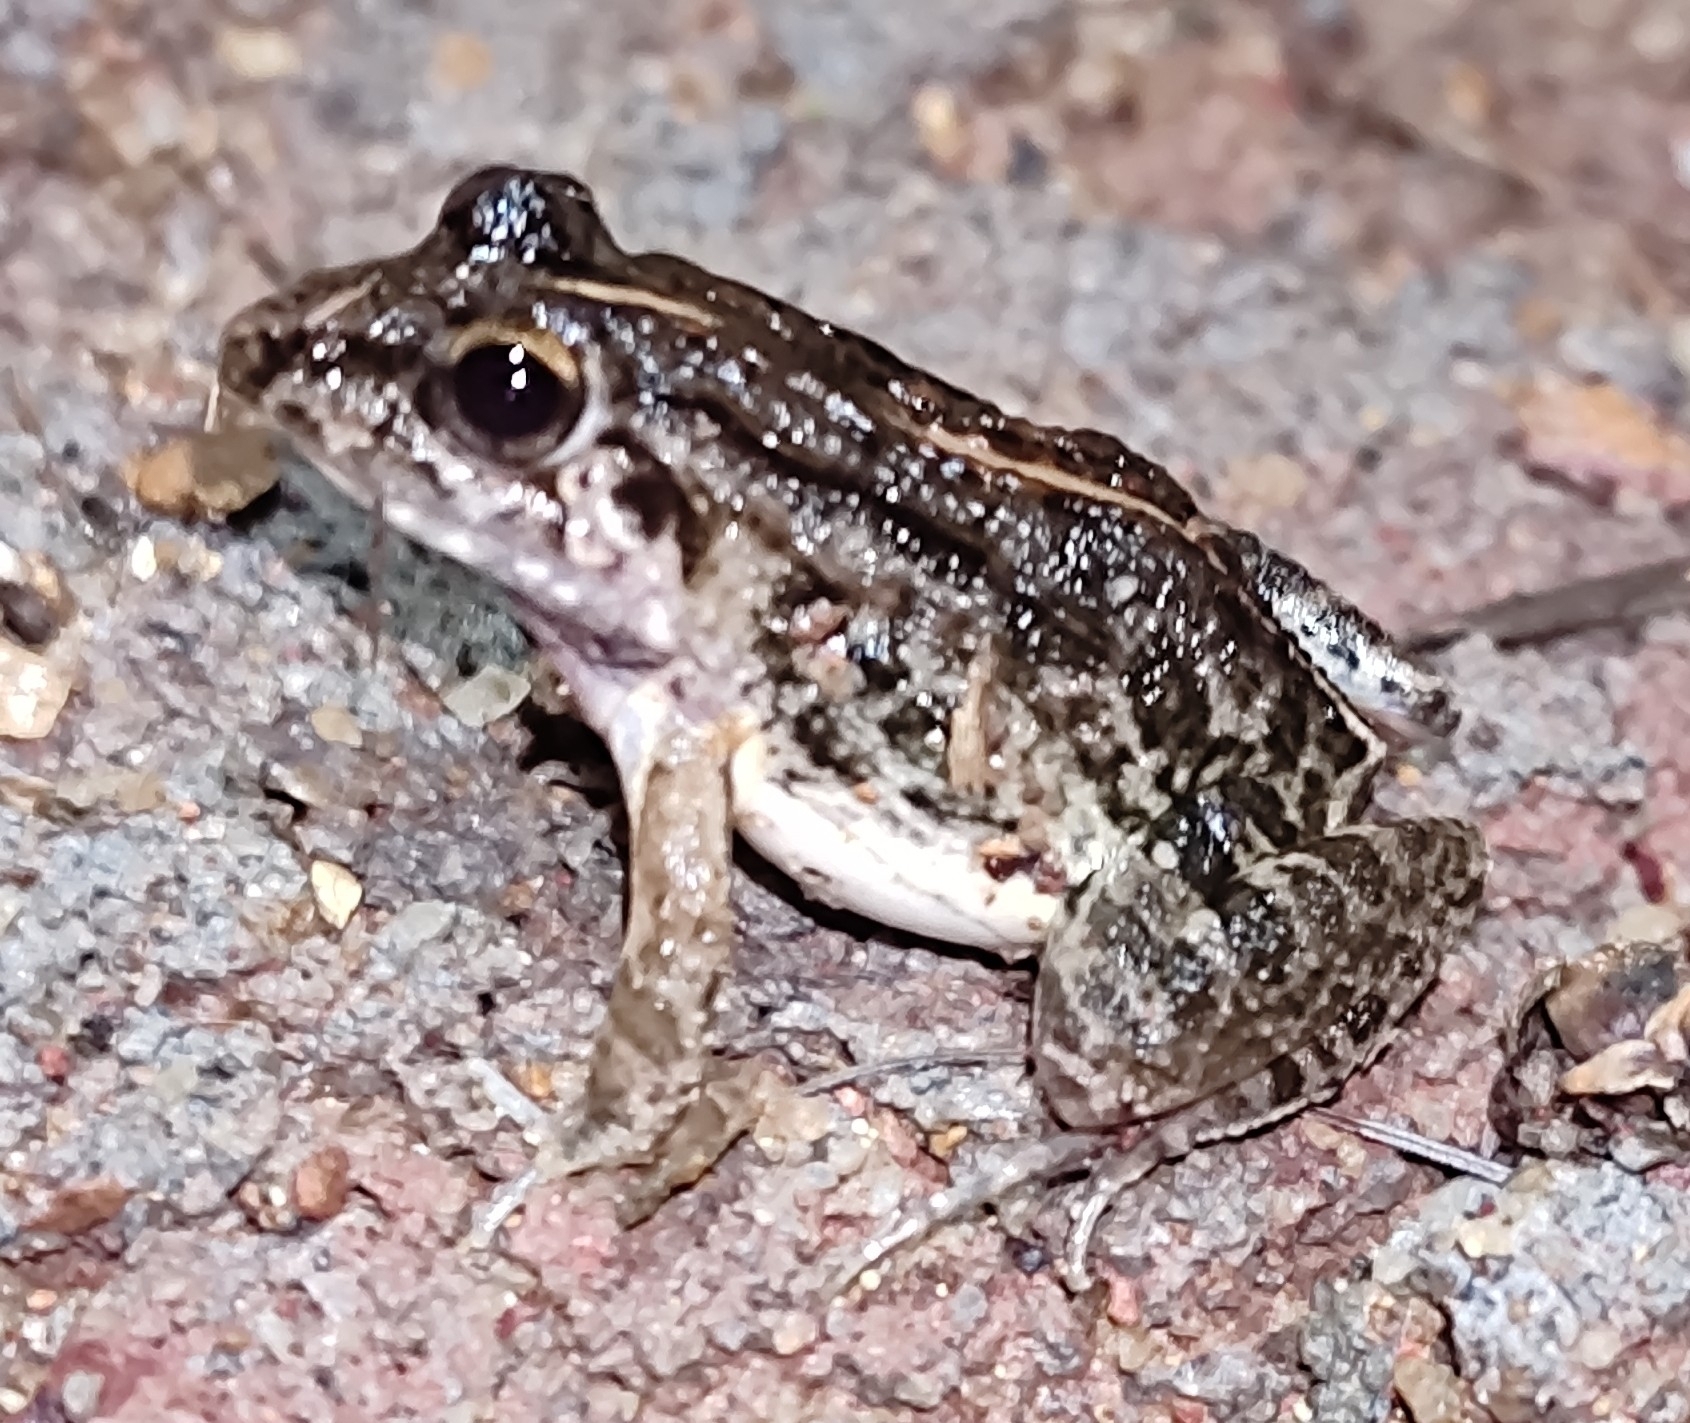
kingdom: Animalia
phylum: Chordata
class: Amphibia
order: Anura
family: Dicroglossidae
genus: Minervarya
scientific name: Minervarya agricola
